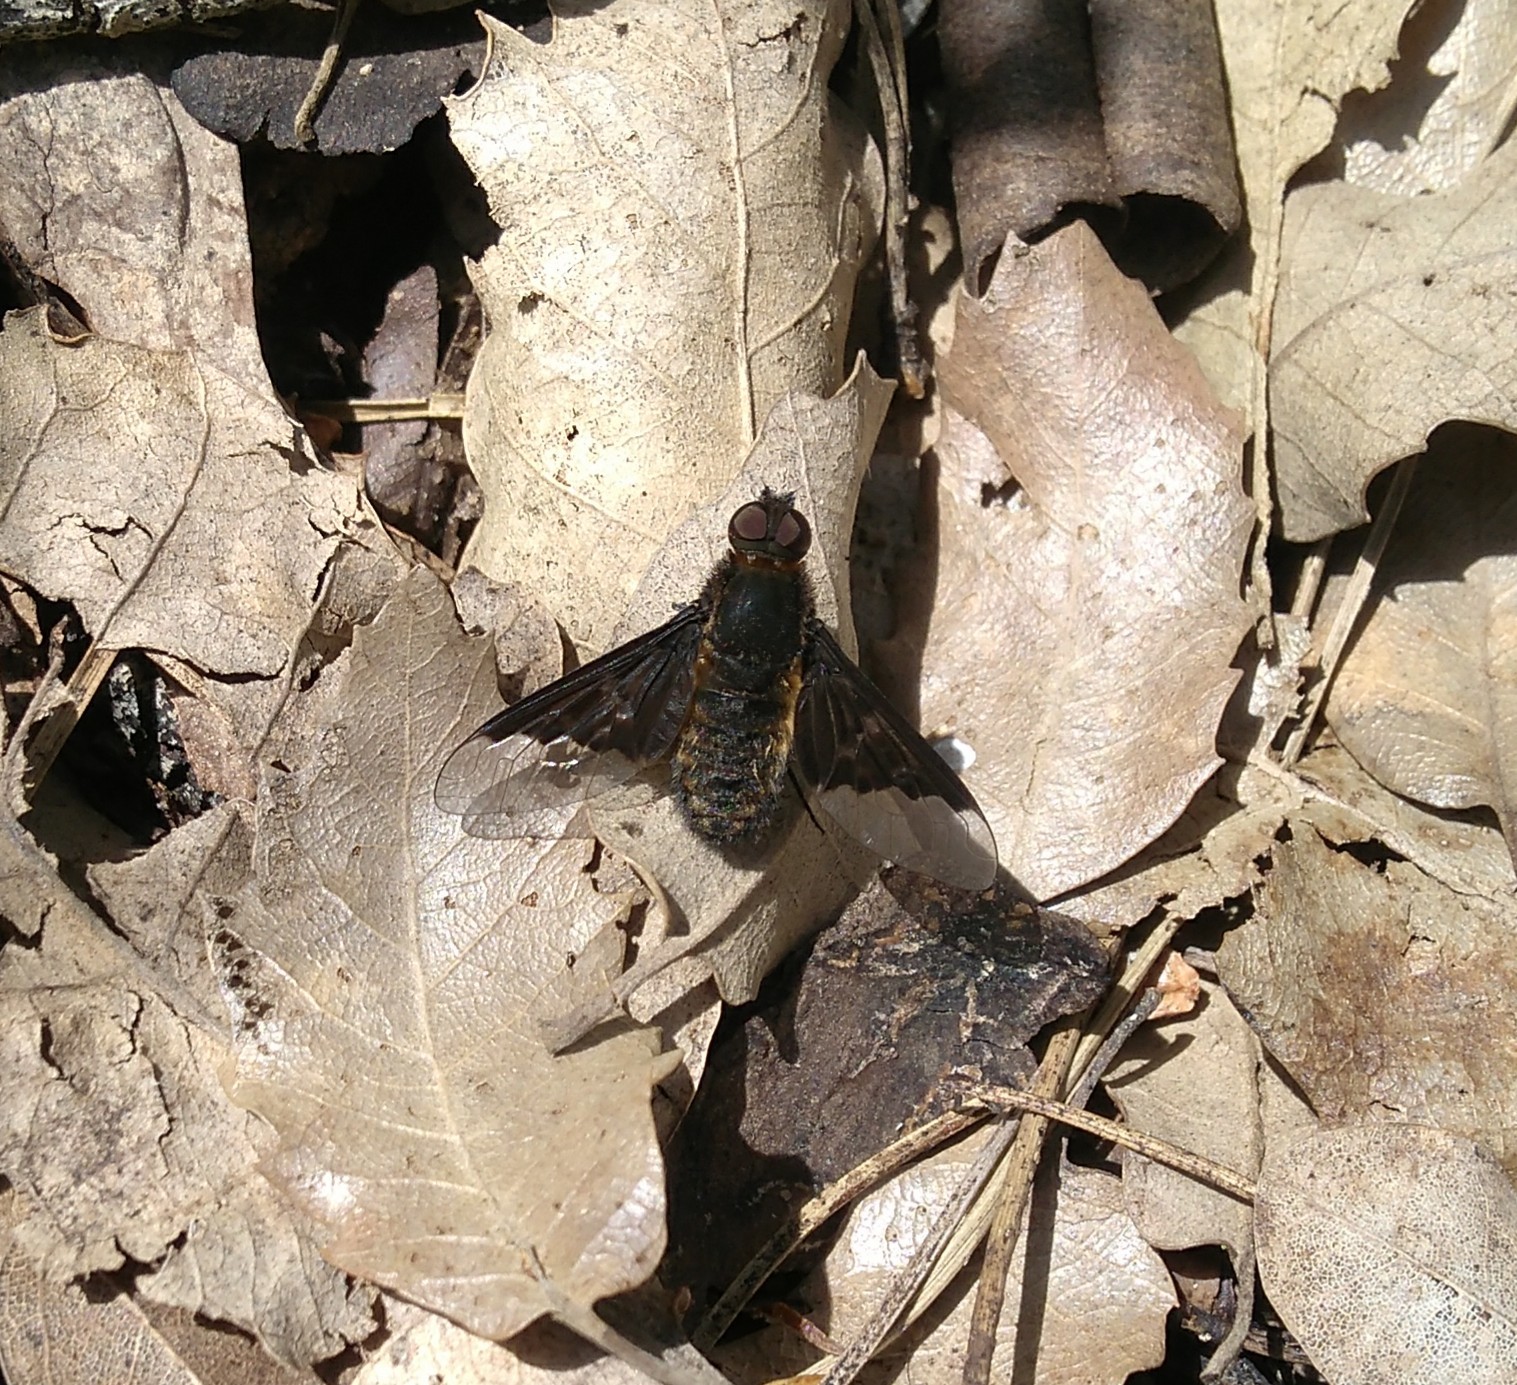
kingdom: Animalia
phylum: Arthropoda
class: Insecta
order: Diptera
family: Bombyliidae
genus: Hemipenthes
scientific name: Hemipenthes morio
